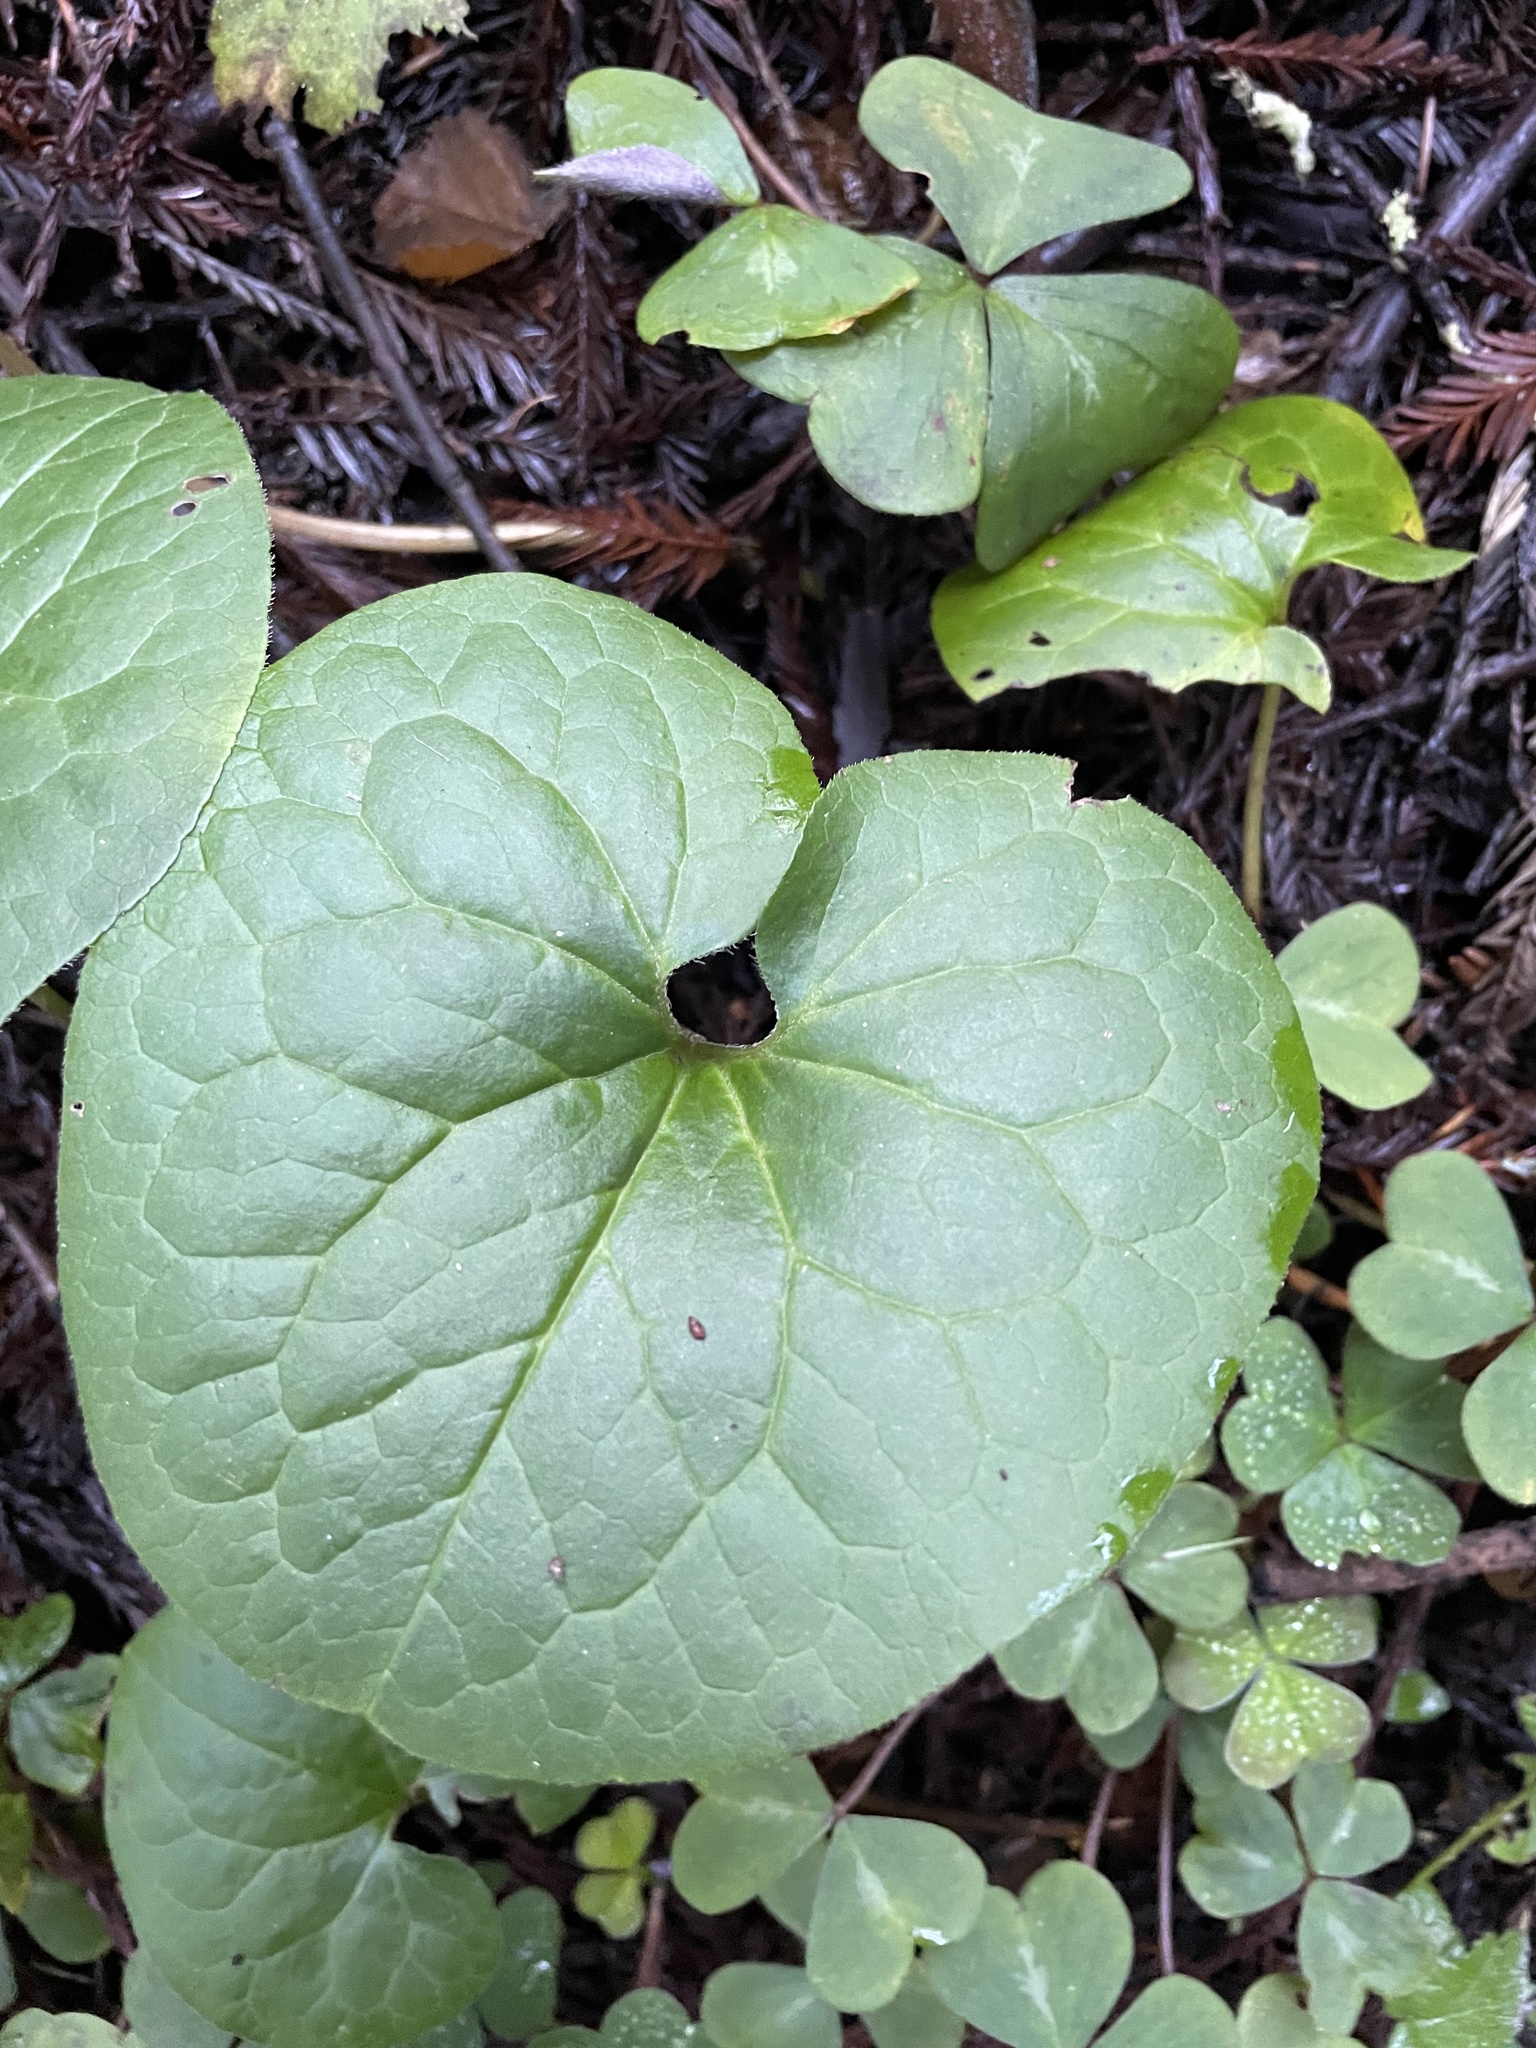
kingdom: Plantae
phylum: Tracheophyta
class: Magnoliopsida
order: Piperales
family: Aristolochiaceae
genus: Asarum
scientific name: Asarum caudatum
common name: Wild ginger
